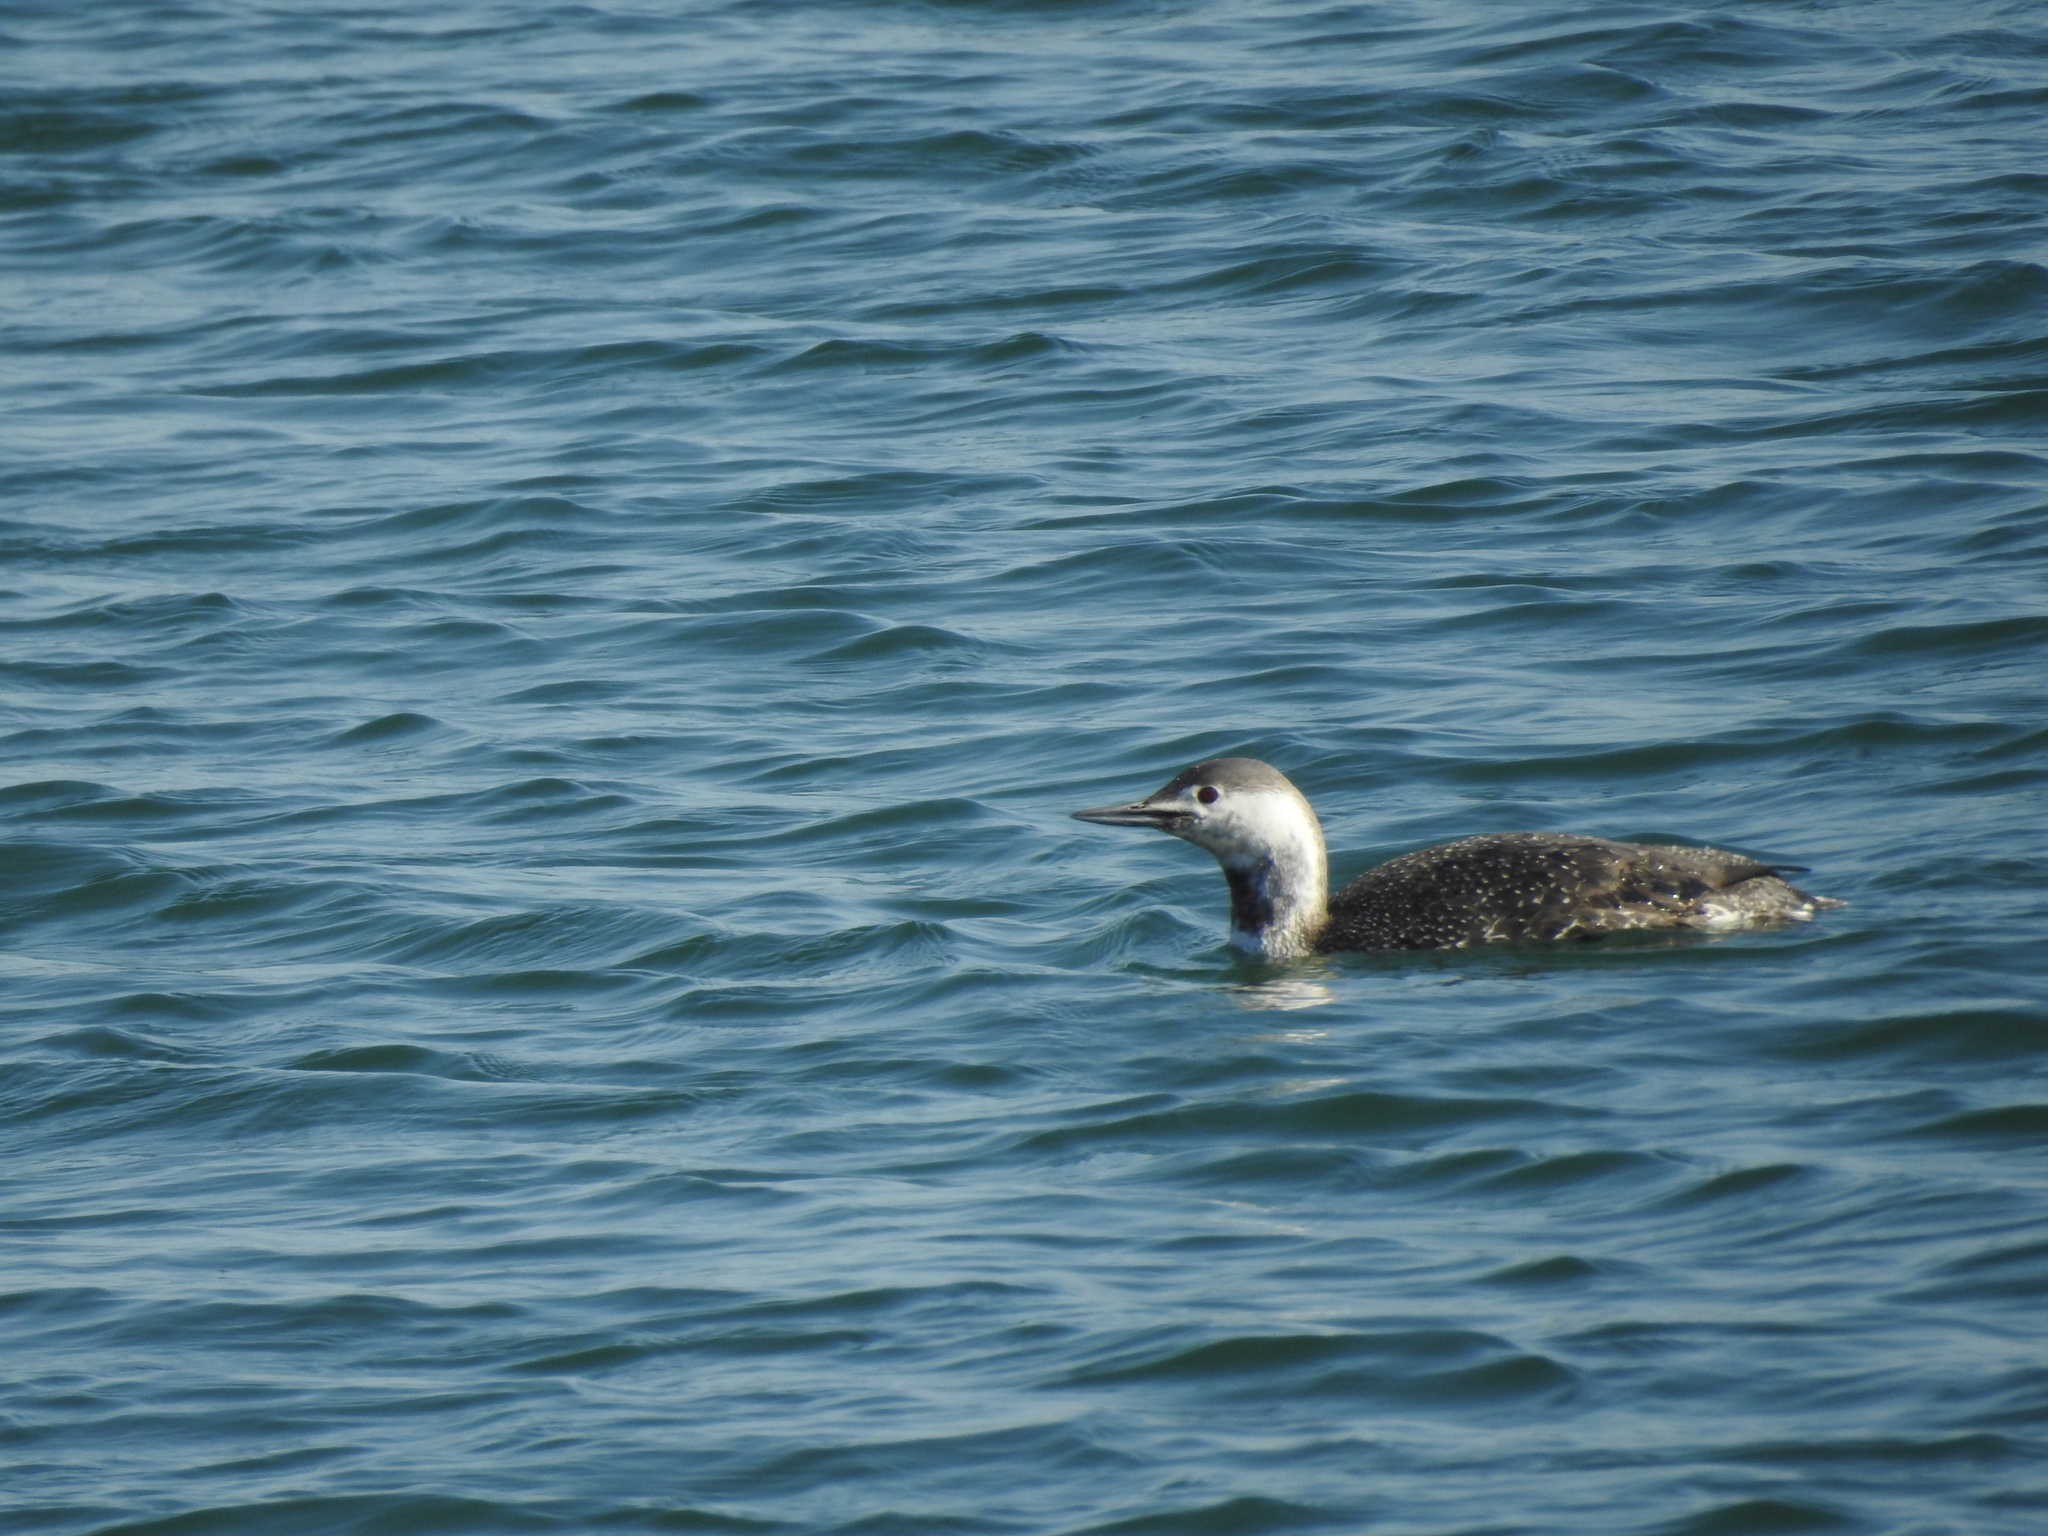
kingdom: Animalia
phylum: Chordata
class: Aves
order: Gaviiformes
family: Gaviidae
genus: Gavia
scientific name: Gavia stellata
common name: Red-throated loon
